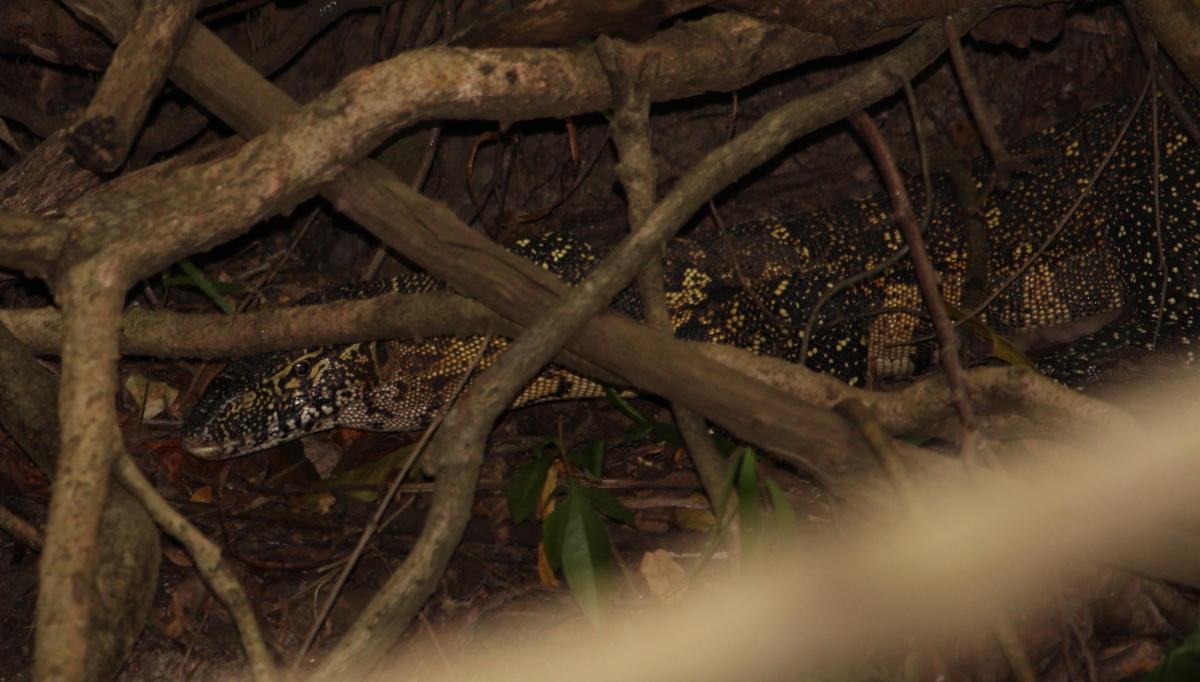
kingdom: Animalia
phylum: Chordata
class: Squamata
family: Varanidae
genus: Varanus
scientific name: Varanus niloticus
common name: Nile monitor
